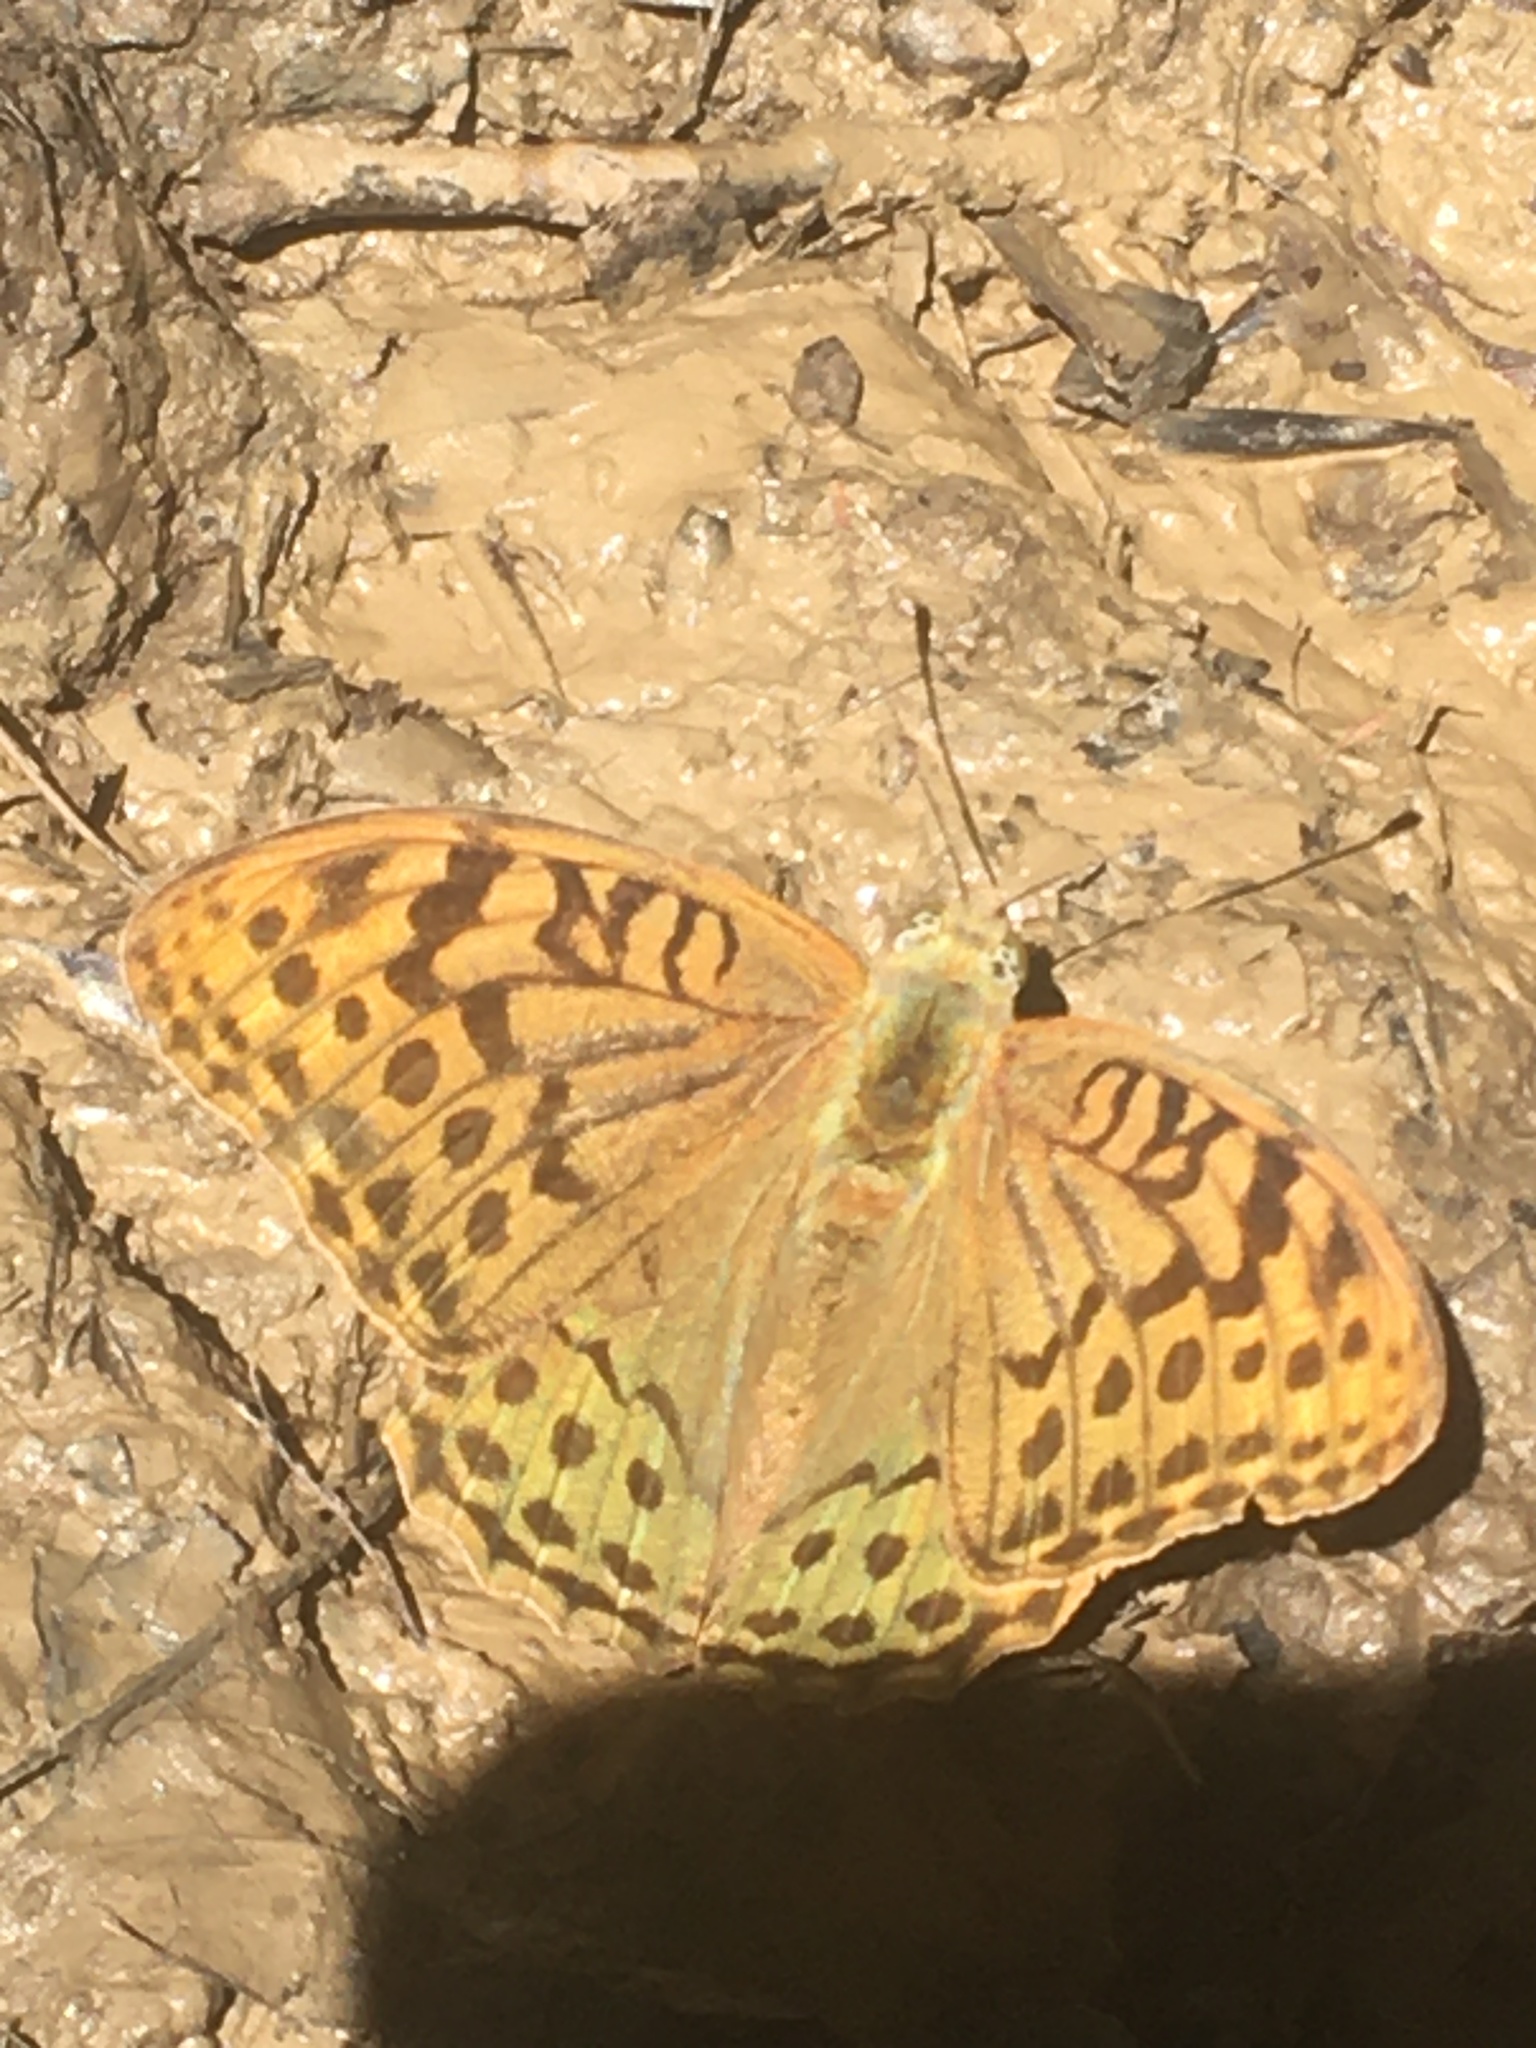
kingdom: Animalia
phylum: Arthropoda
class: Insecta
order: Lepidoptera
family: Nymphalidae
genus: Damora
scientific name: Damora pandora
